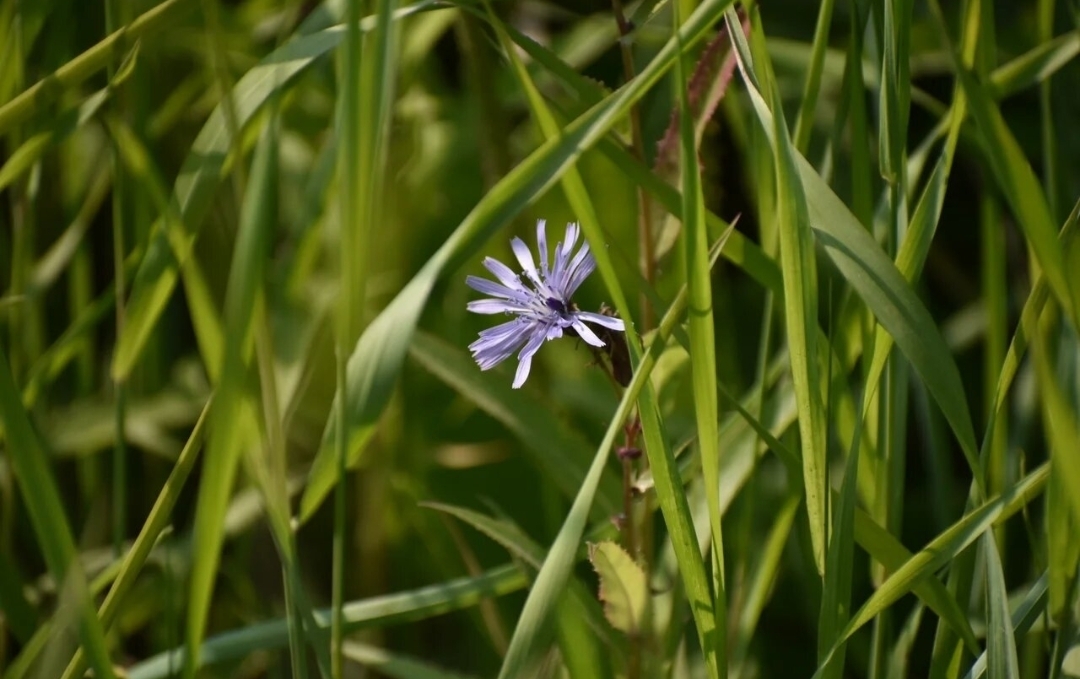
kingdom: Plantae
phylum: Tracheophyta
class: Magnoliopsida
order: Asterales
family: Asteraceae
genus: Lactuca
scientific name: Lactuca sibirica
